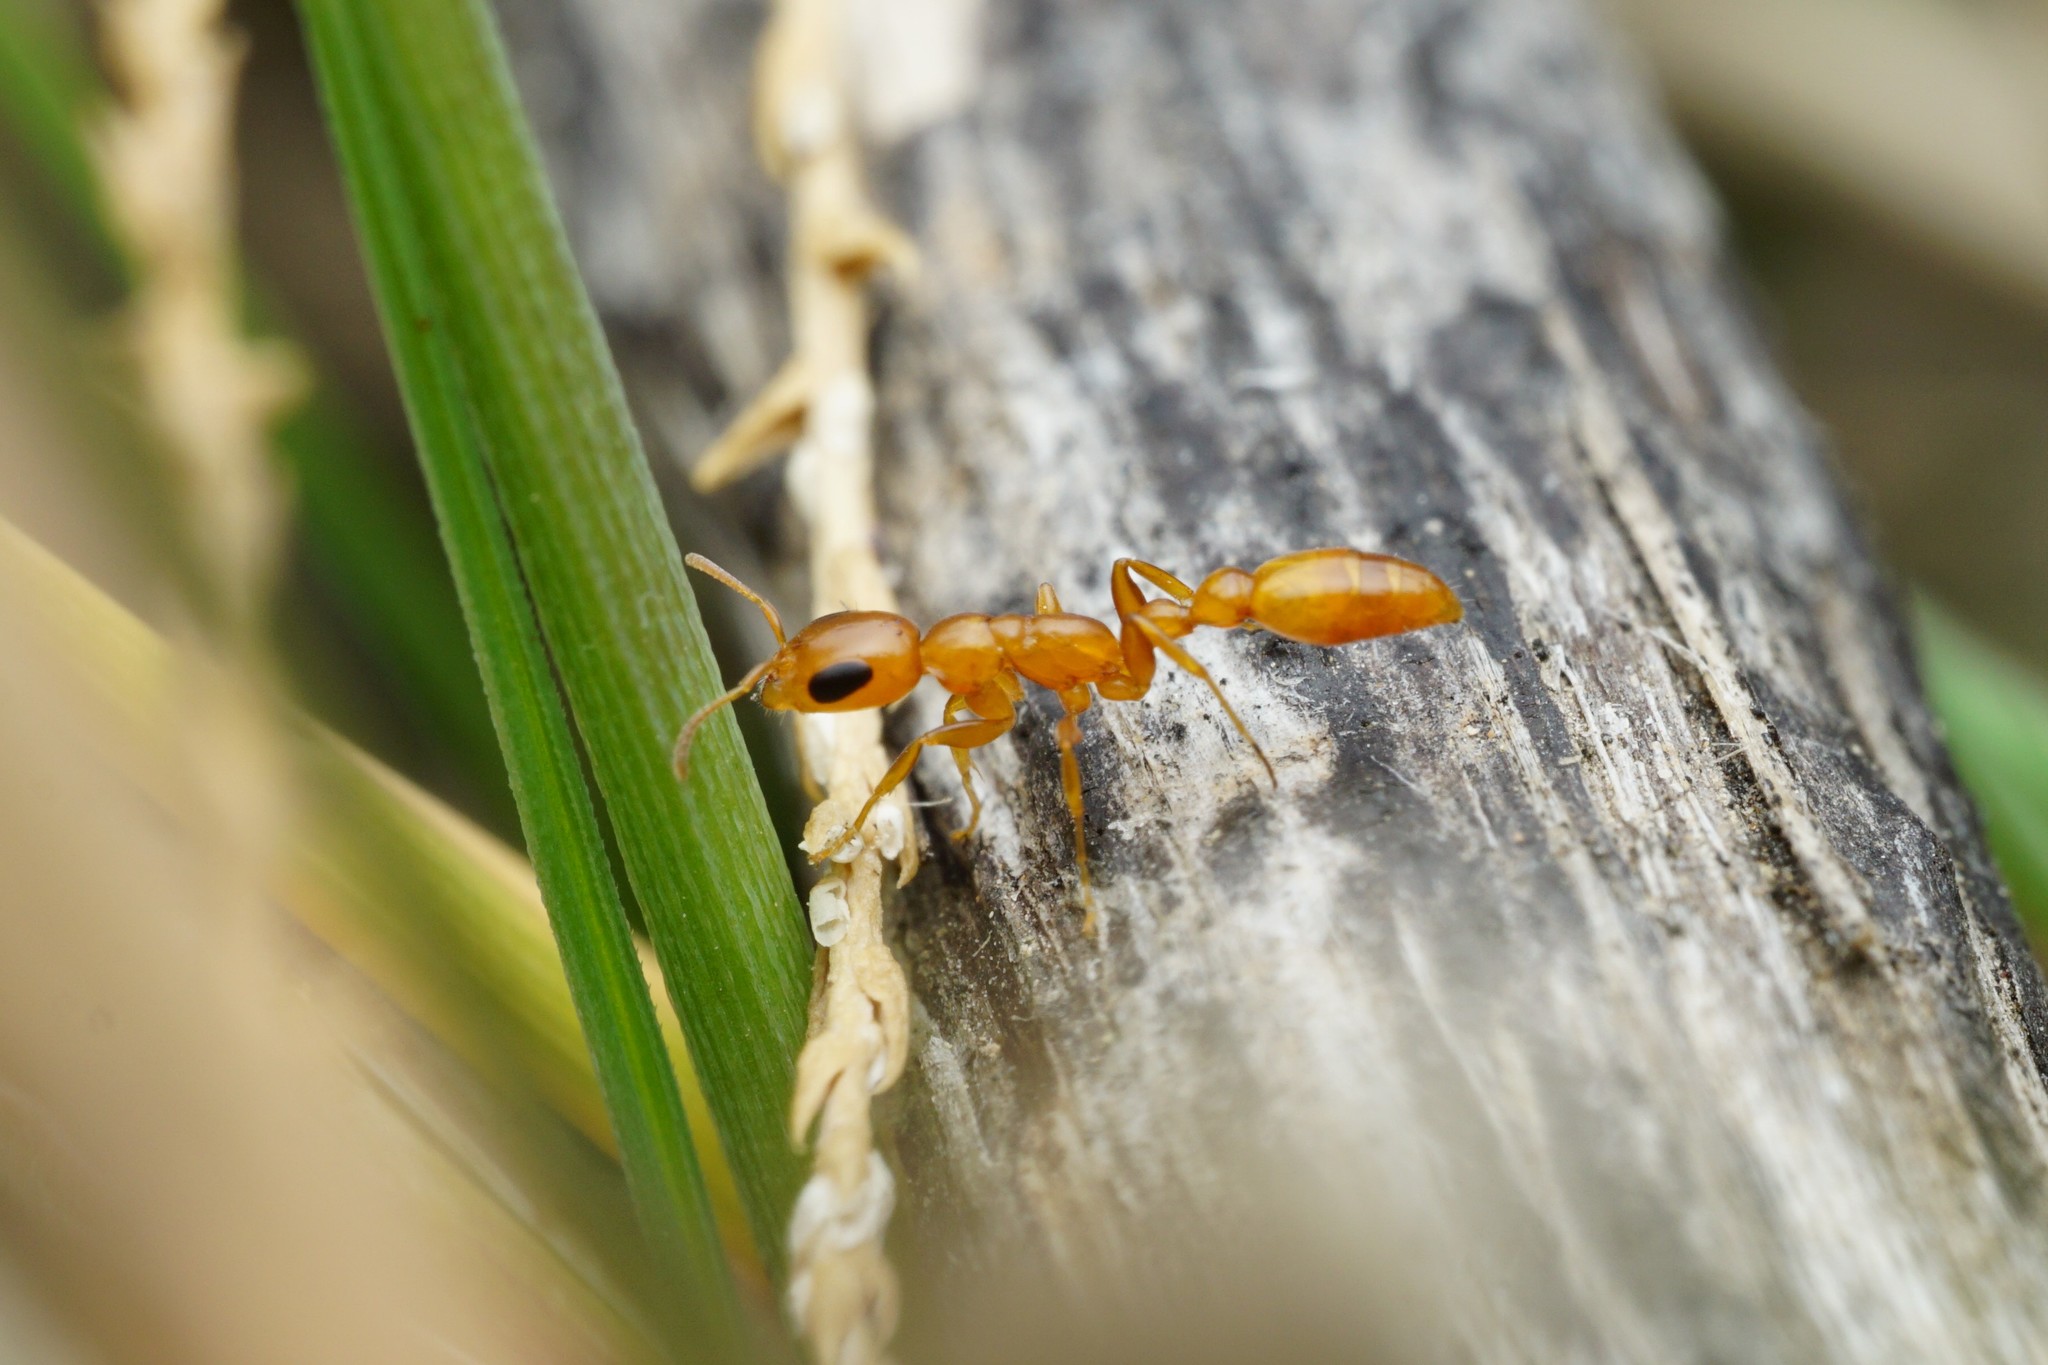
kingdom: Animalia
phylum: Arthropoda
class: Insecta
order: Hymenoptera
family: Formicidae
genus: Pseudomyrmex
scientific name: Pseudomyrmex pallidus
